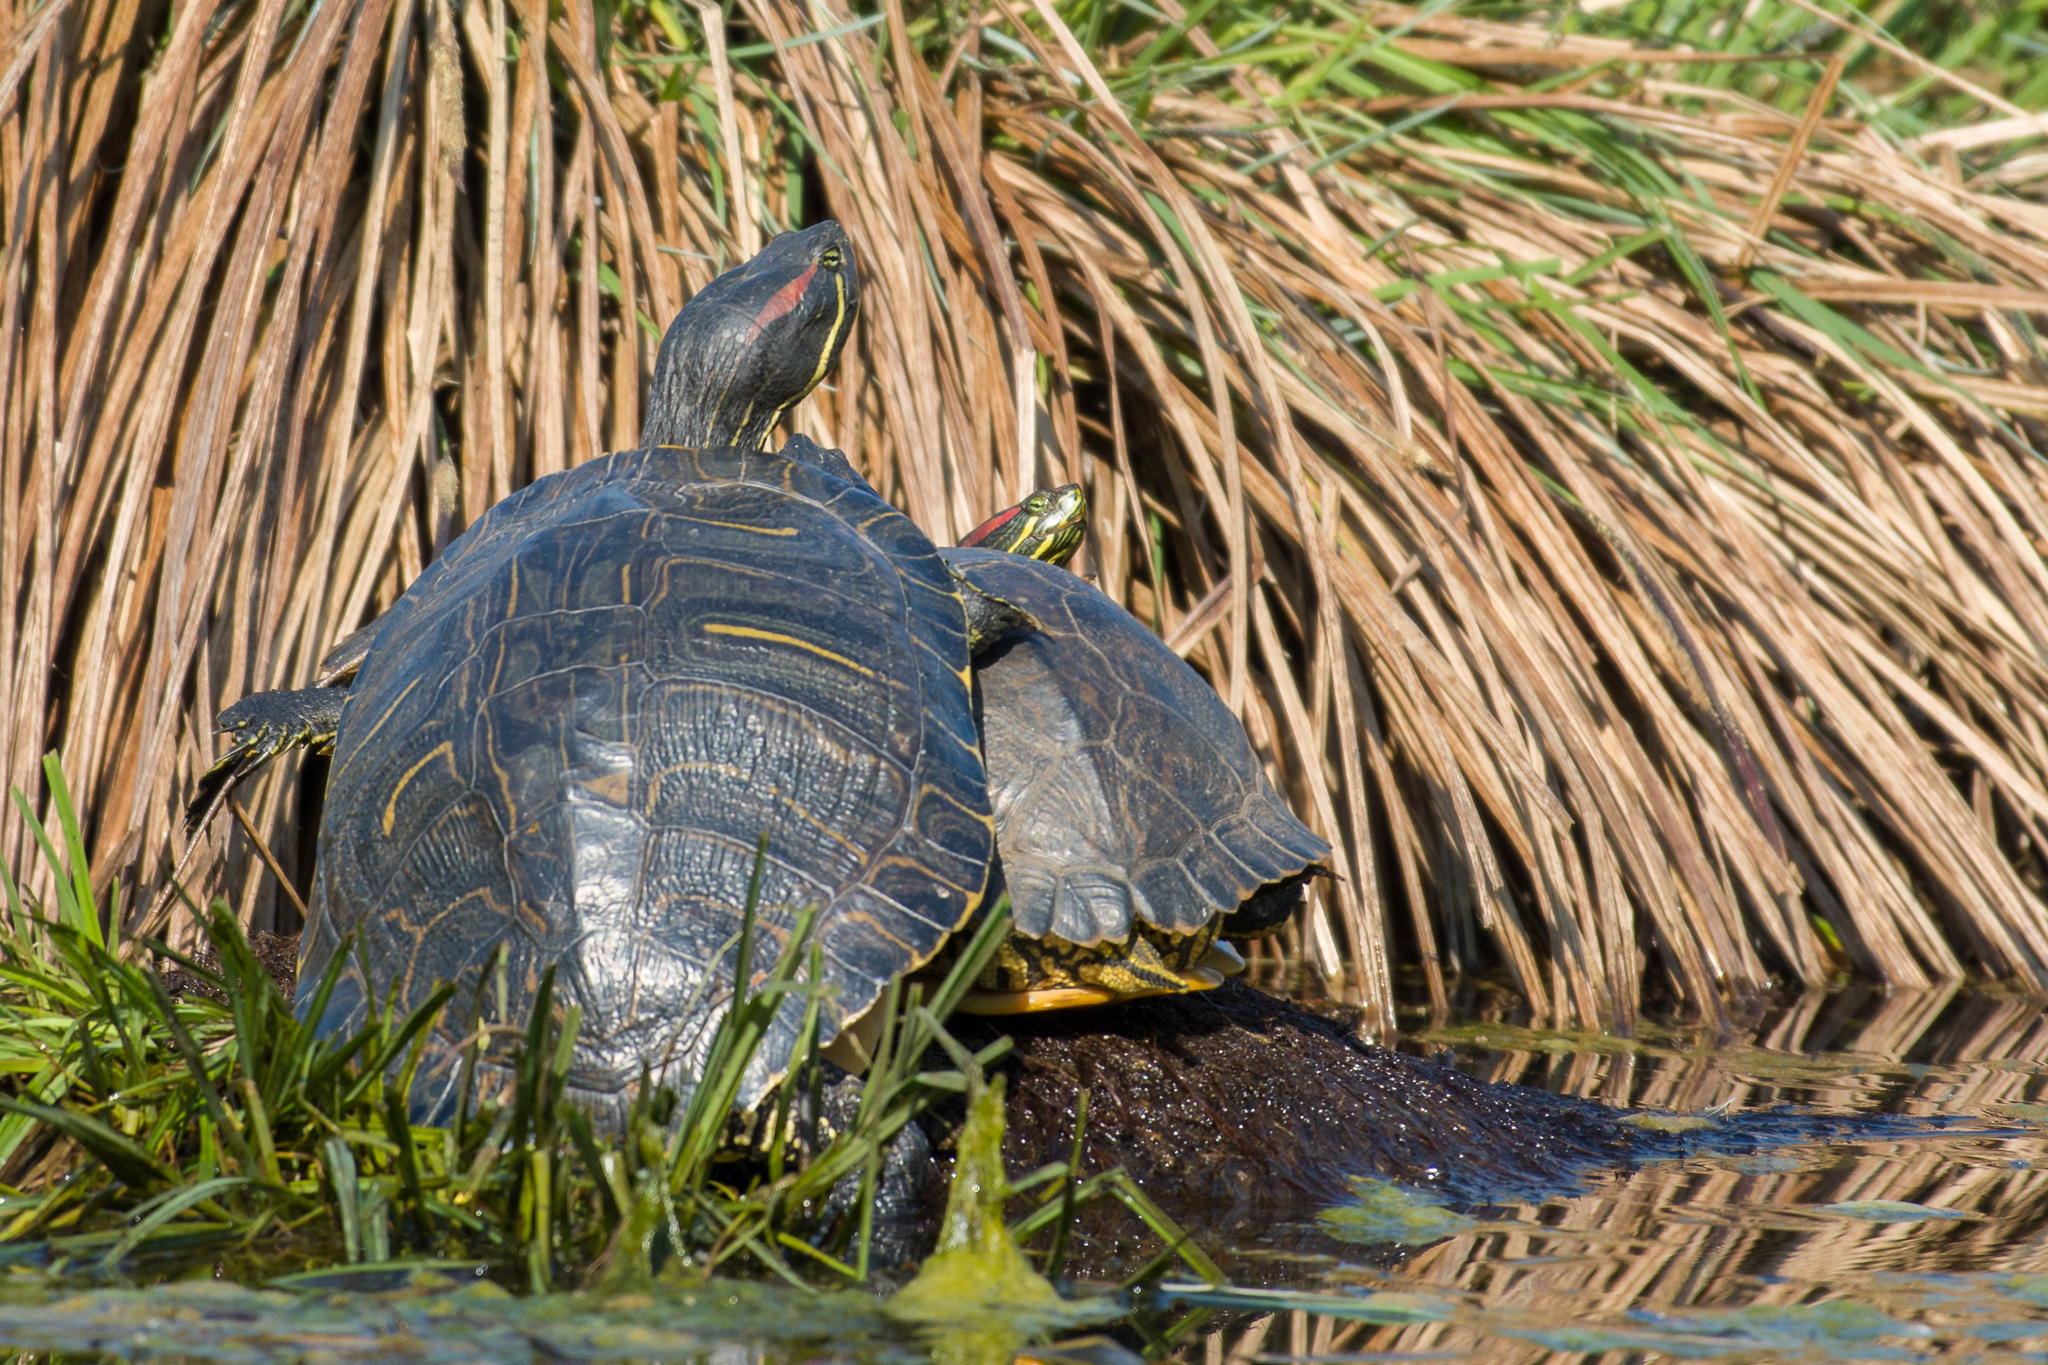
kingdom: Animalia
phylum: Chordata
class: Testudines
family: Emydidae
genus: Trachemys
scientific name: Trachemys scripta
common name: Slider
